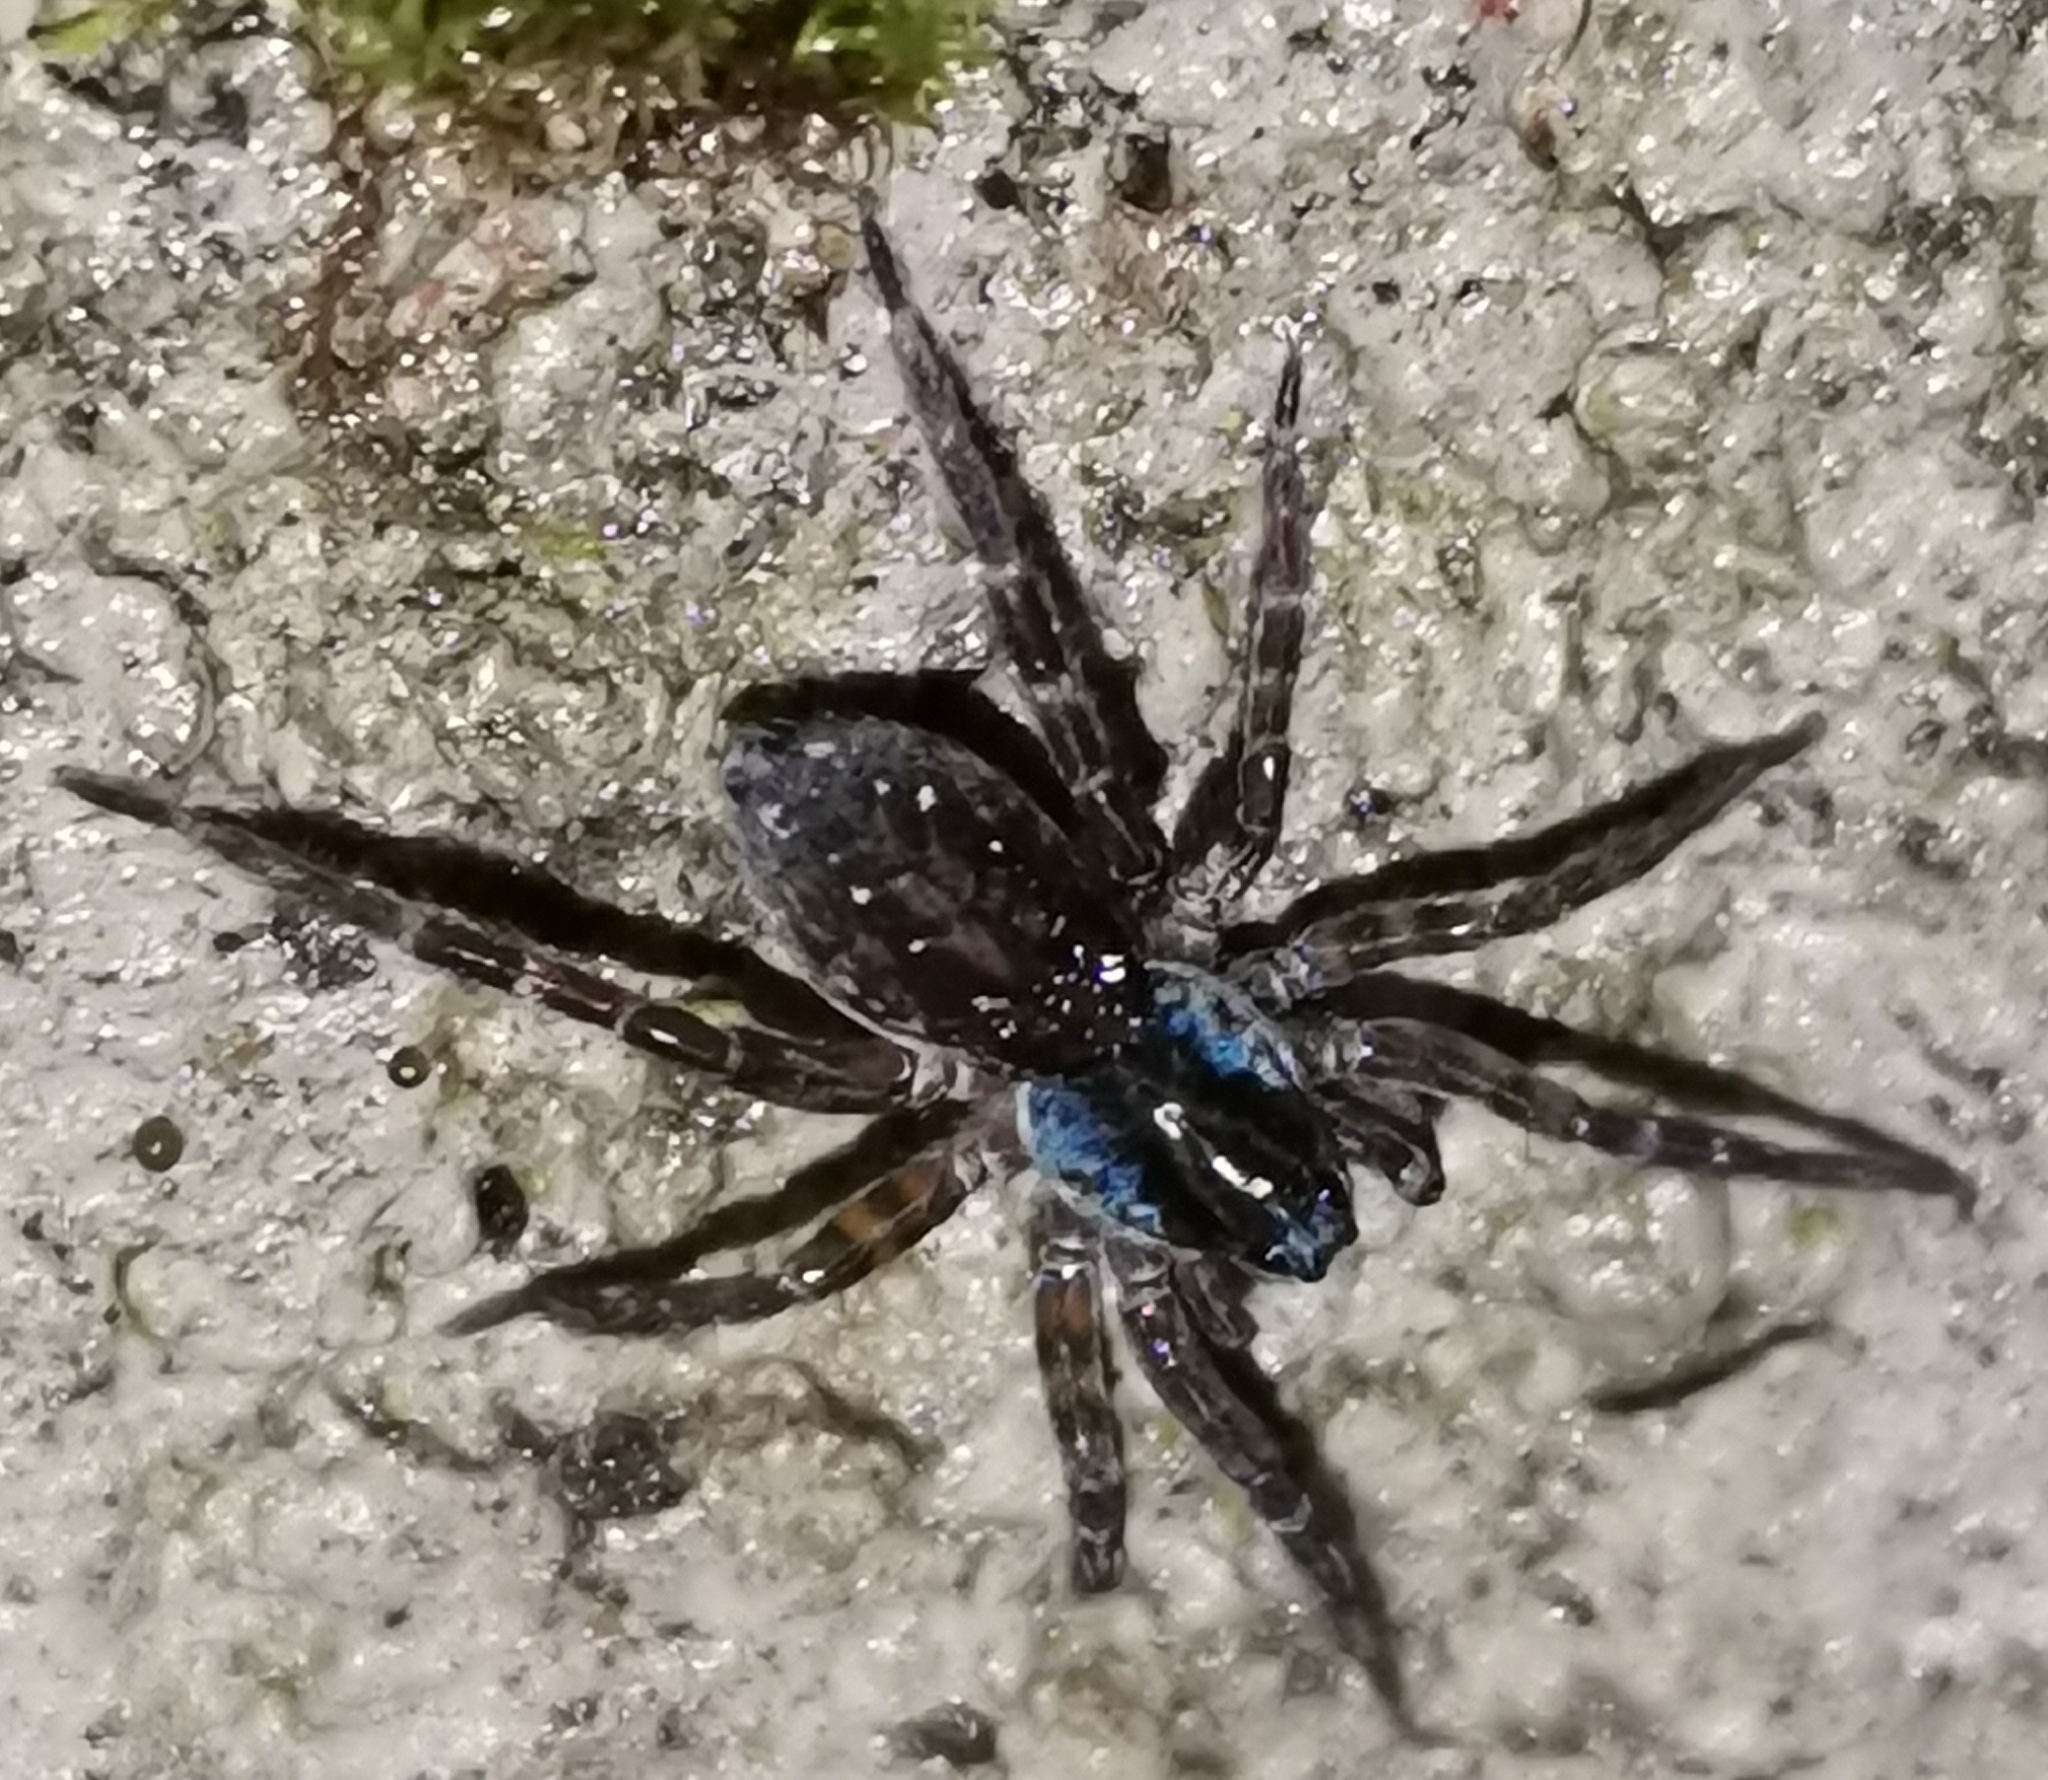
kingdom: Animalia
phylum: Arthropoda
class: Arachnida
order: Araneae
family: Lycosidae
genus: Piratula
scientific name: Piratula hygrophila
